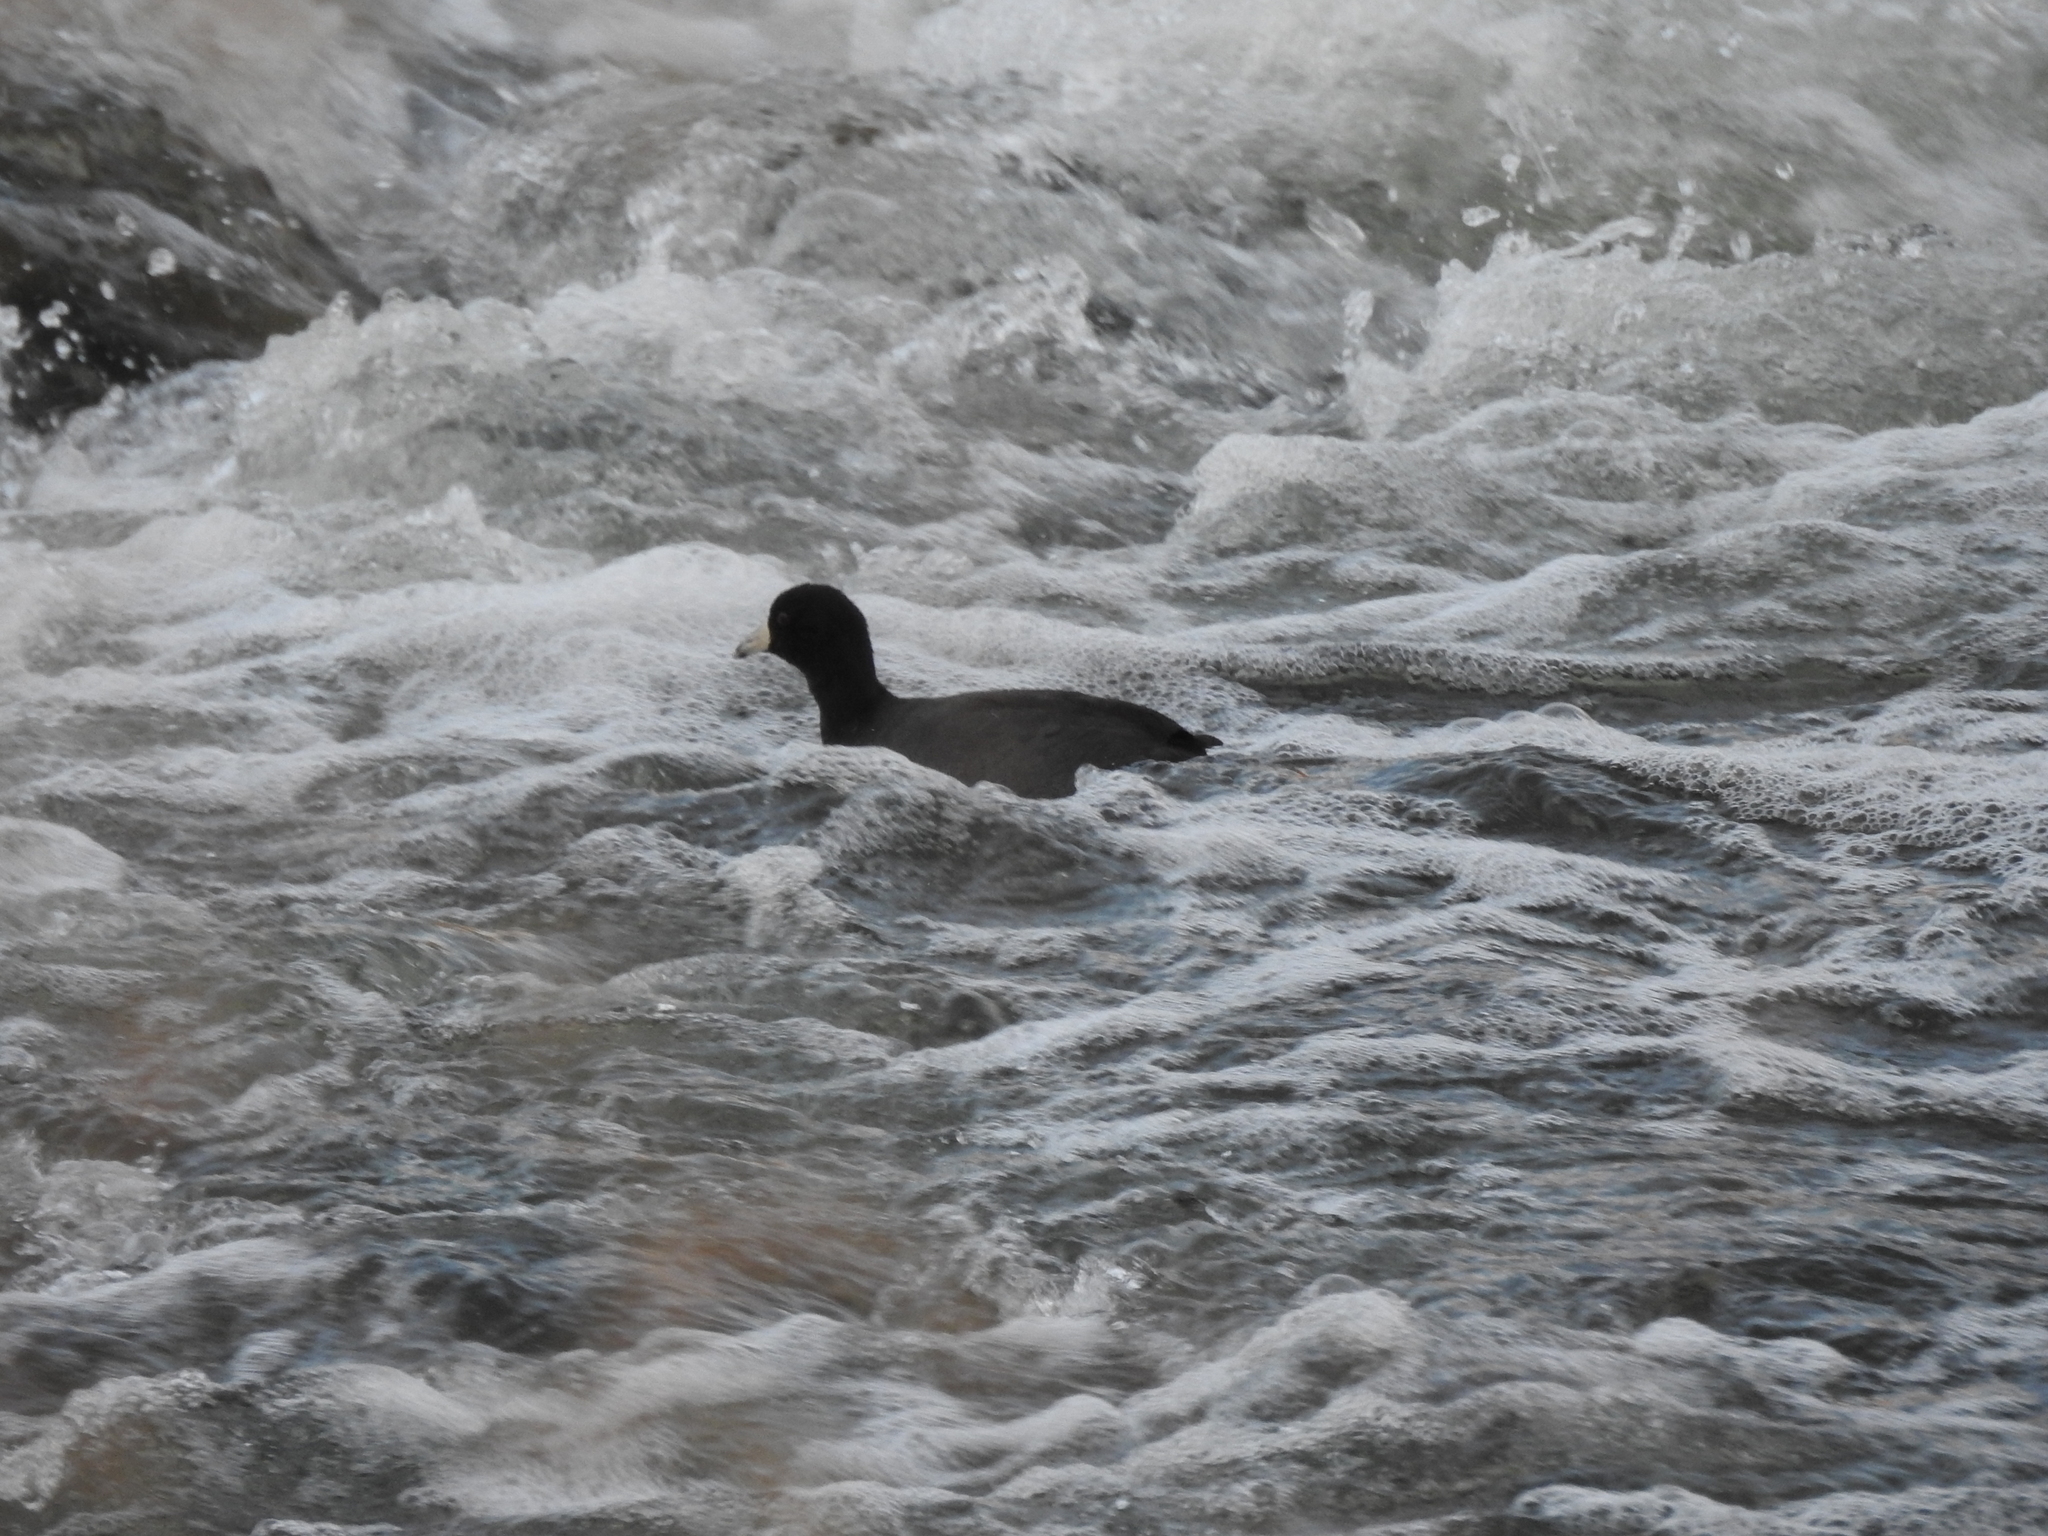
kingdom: Animalia
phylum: Chordata
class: Aves
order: Gruiformes
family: Rallidae
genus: Fulica
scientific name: Fulica americana
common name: American coot
